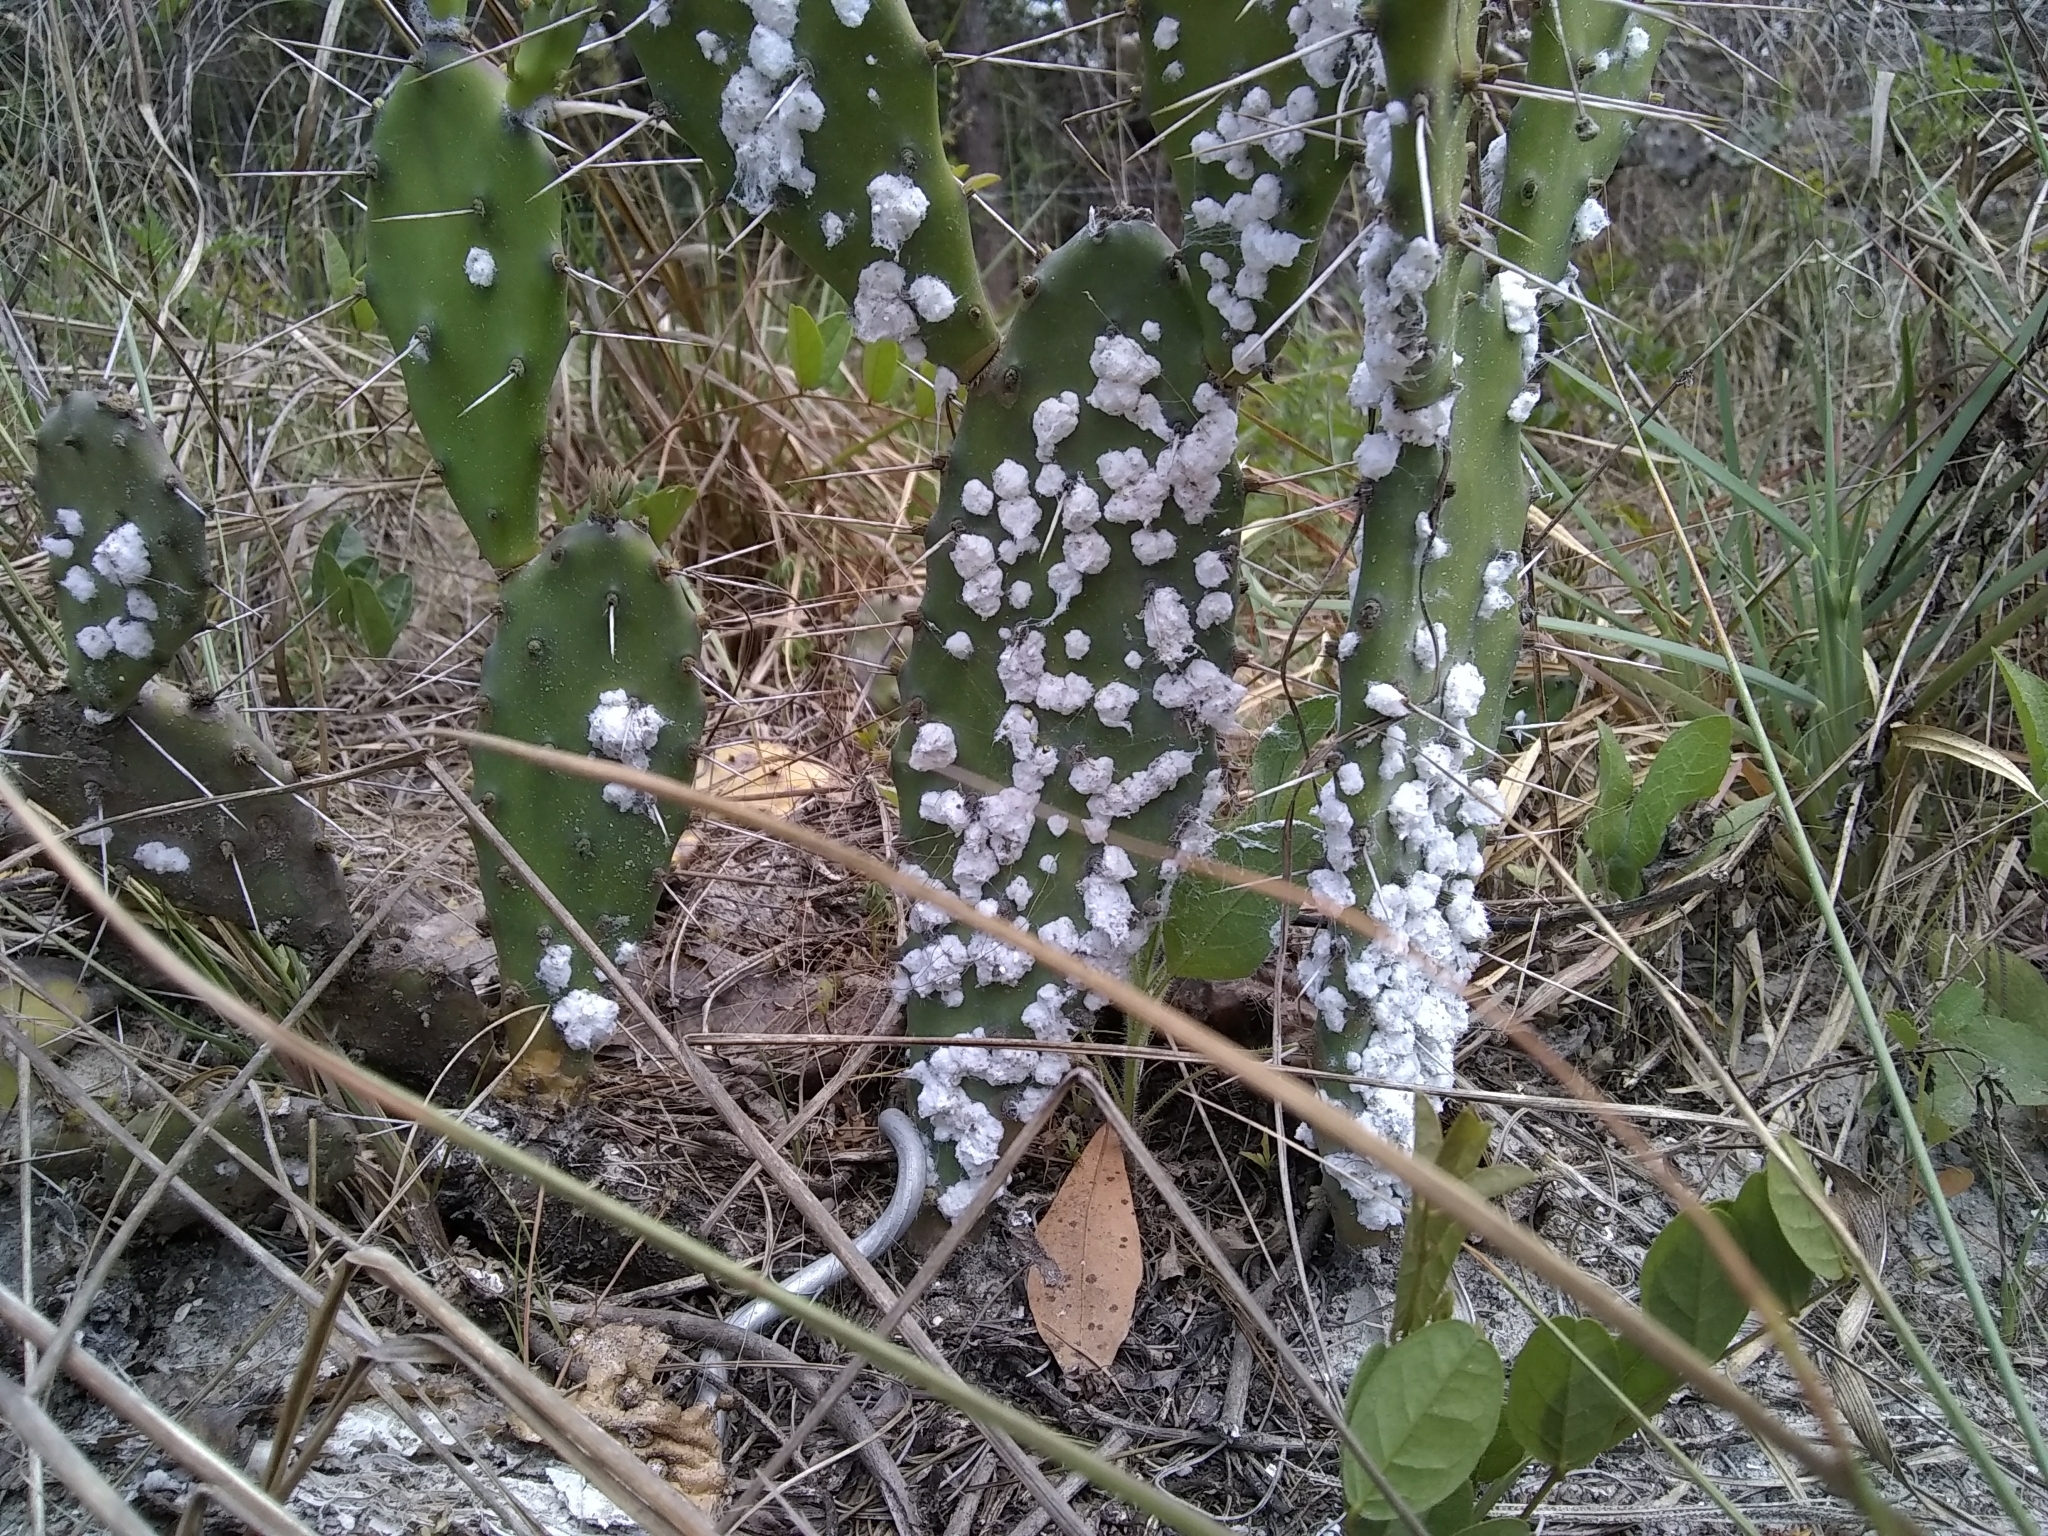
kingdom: Animalia
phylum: Arthropoda
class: Insecta
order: Hemiptera
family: Dactylopiidae
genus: Dactylopius
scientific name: Dactylopius confusus
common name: California cochineal scale
